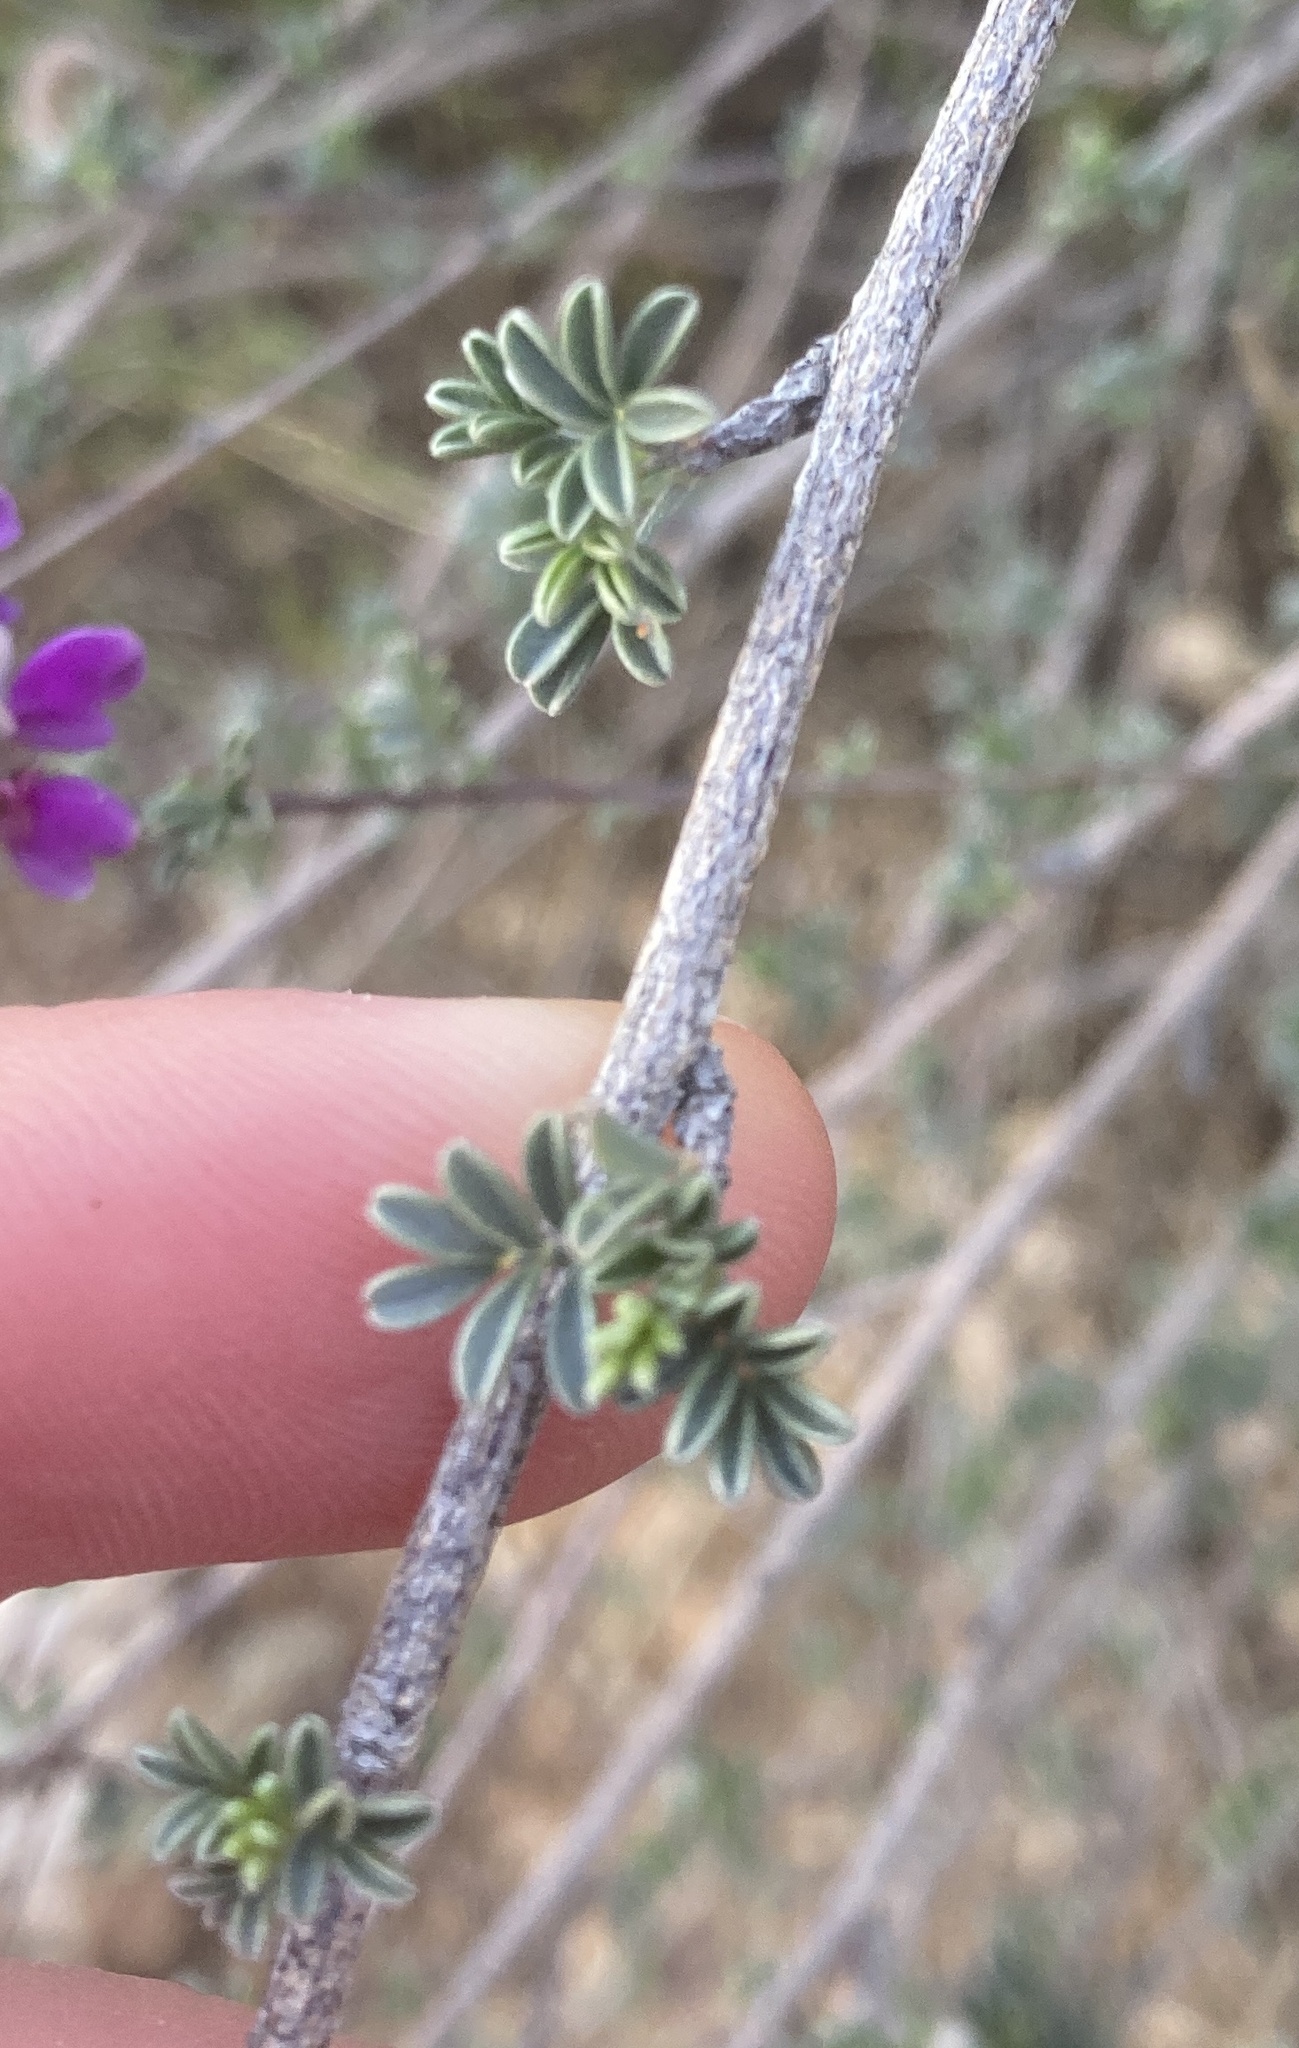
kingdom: Plantae
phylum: Tracheophyta
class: Magnoliopsida
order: Fabales
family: Fabaceae
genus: Dalea
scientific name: Dalea pulchra
